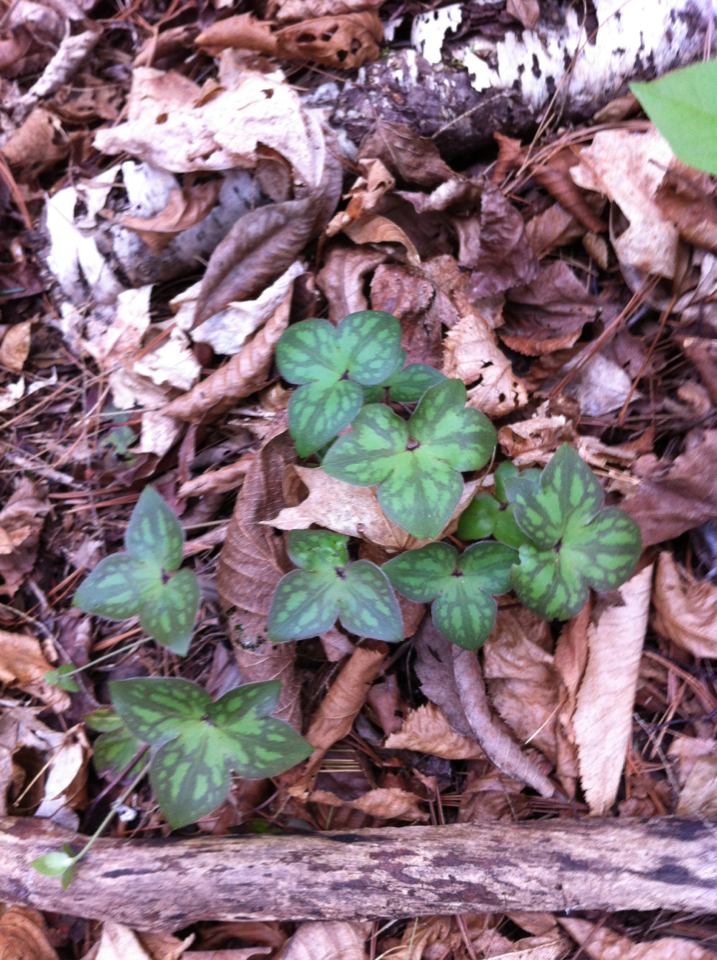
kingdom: Plantae
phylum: Tracheophyta
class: Magnoliopsida
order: Ranunculales
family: Ranunculaceae
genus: Hepatica
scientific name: Hepatica acutiloba
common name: Sharp-lobed hepatica
